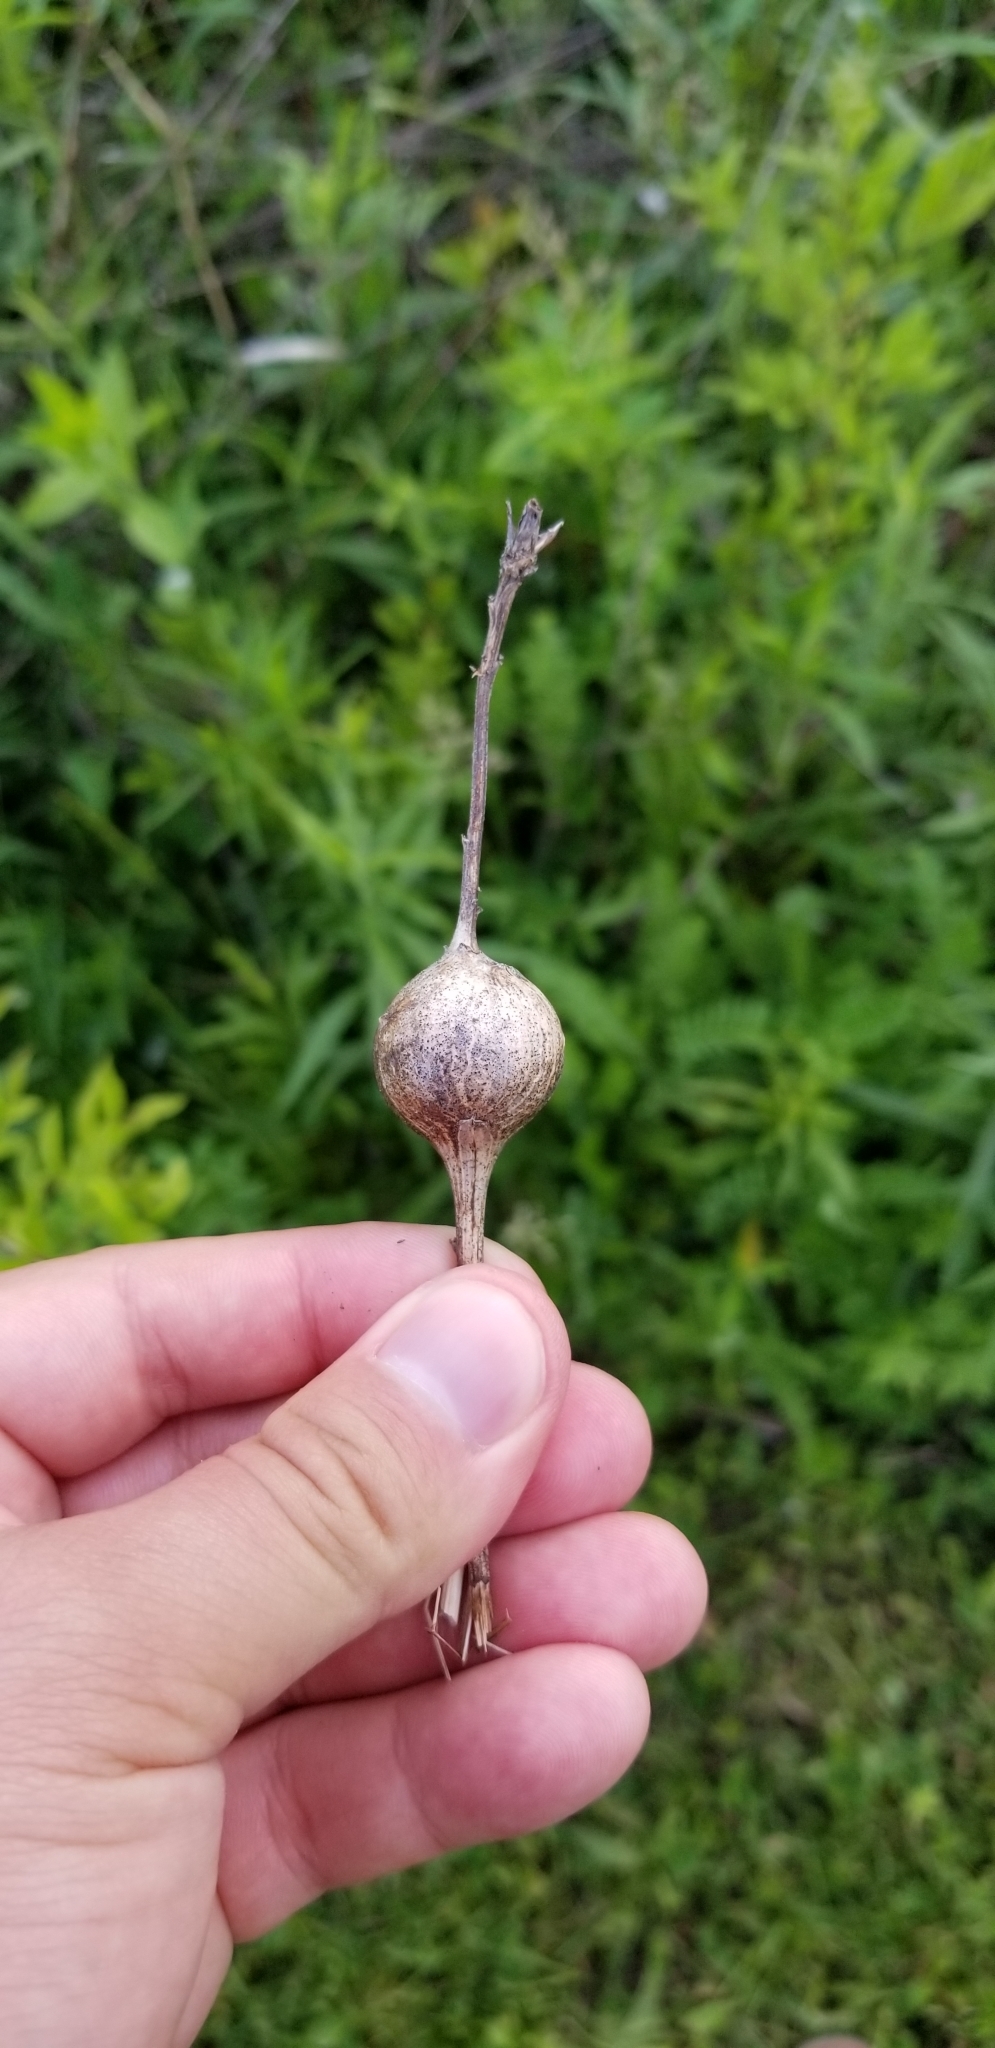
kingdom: Animalia
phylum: Arthropoda
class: Insecta
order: Diptera
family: Tephritidae
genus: Eurosta
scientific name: Eurosta solidaginis
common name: Goldenrod gall fly
